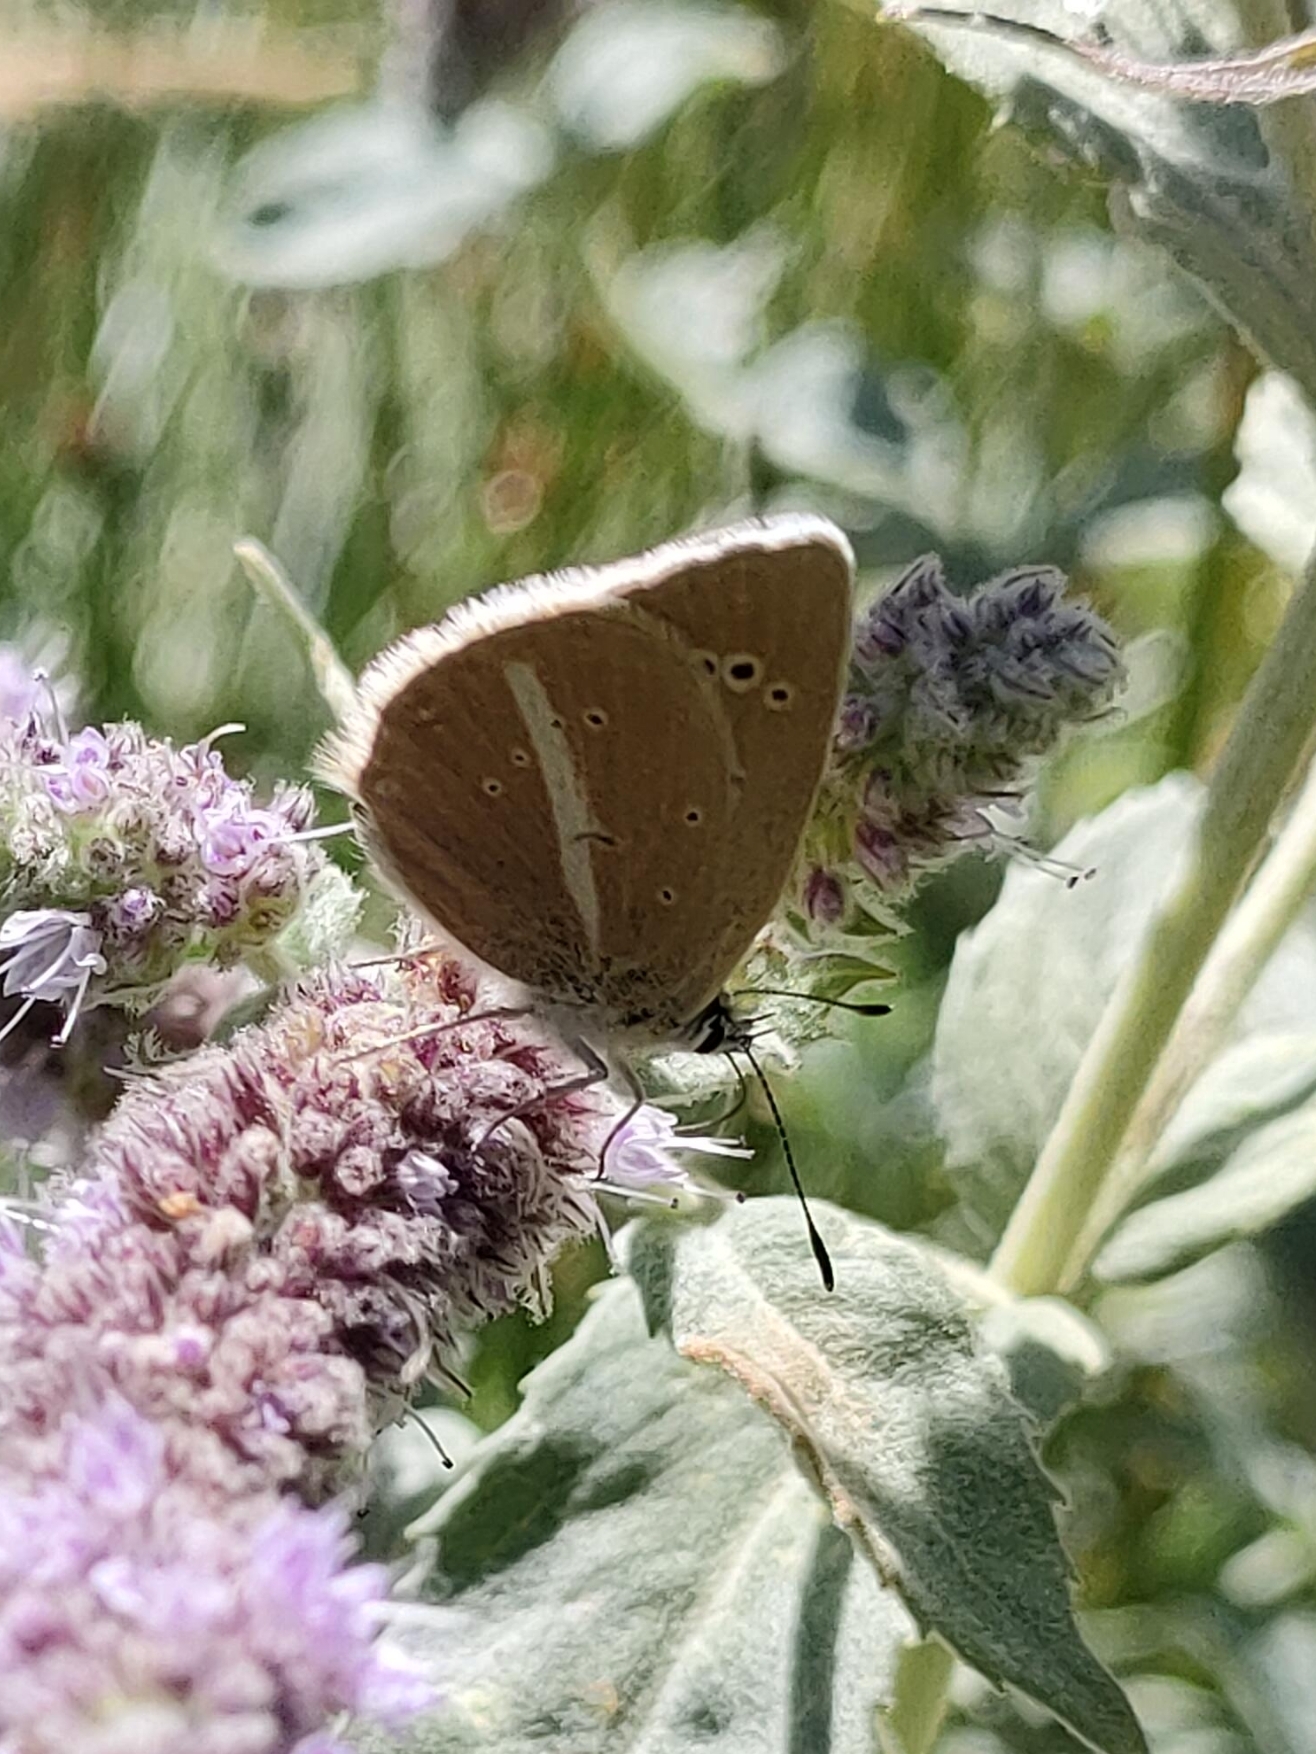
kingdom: Animalia
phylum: Arthropoda
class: Insecta
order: Lepidoptera
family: Lycaenidae
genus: Agrodiaetus
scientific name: Agrodiaetus damon
